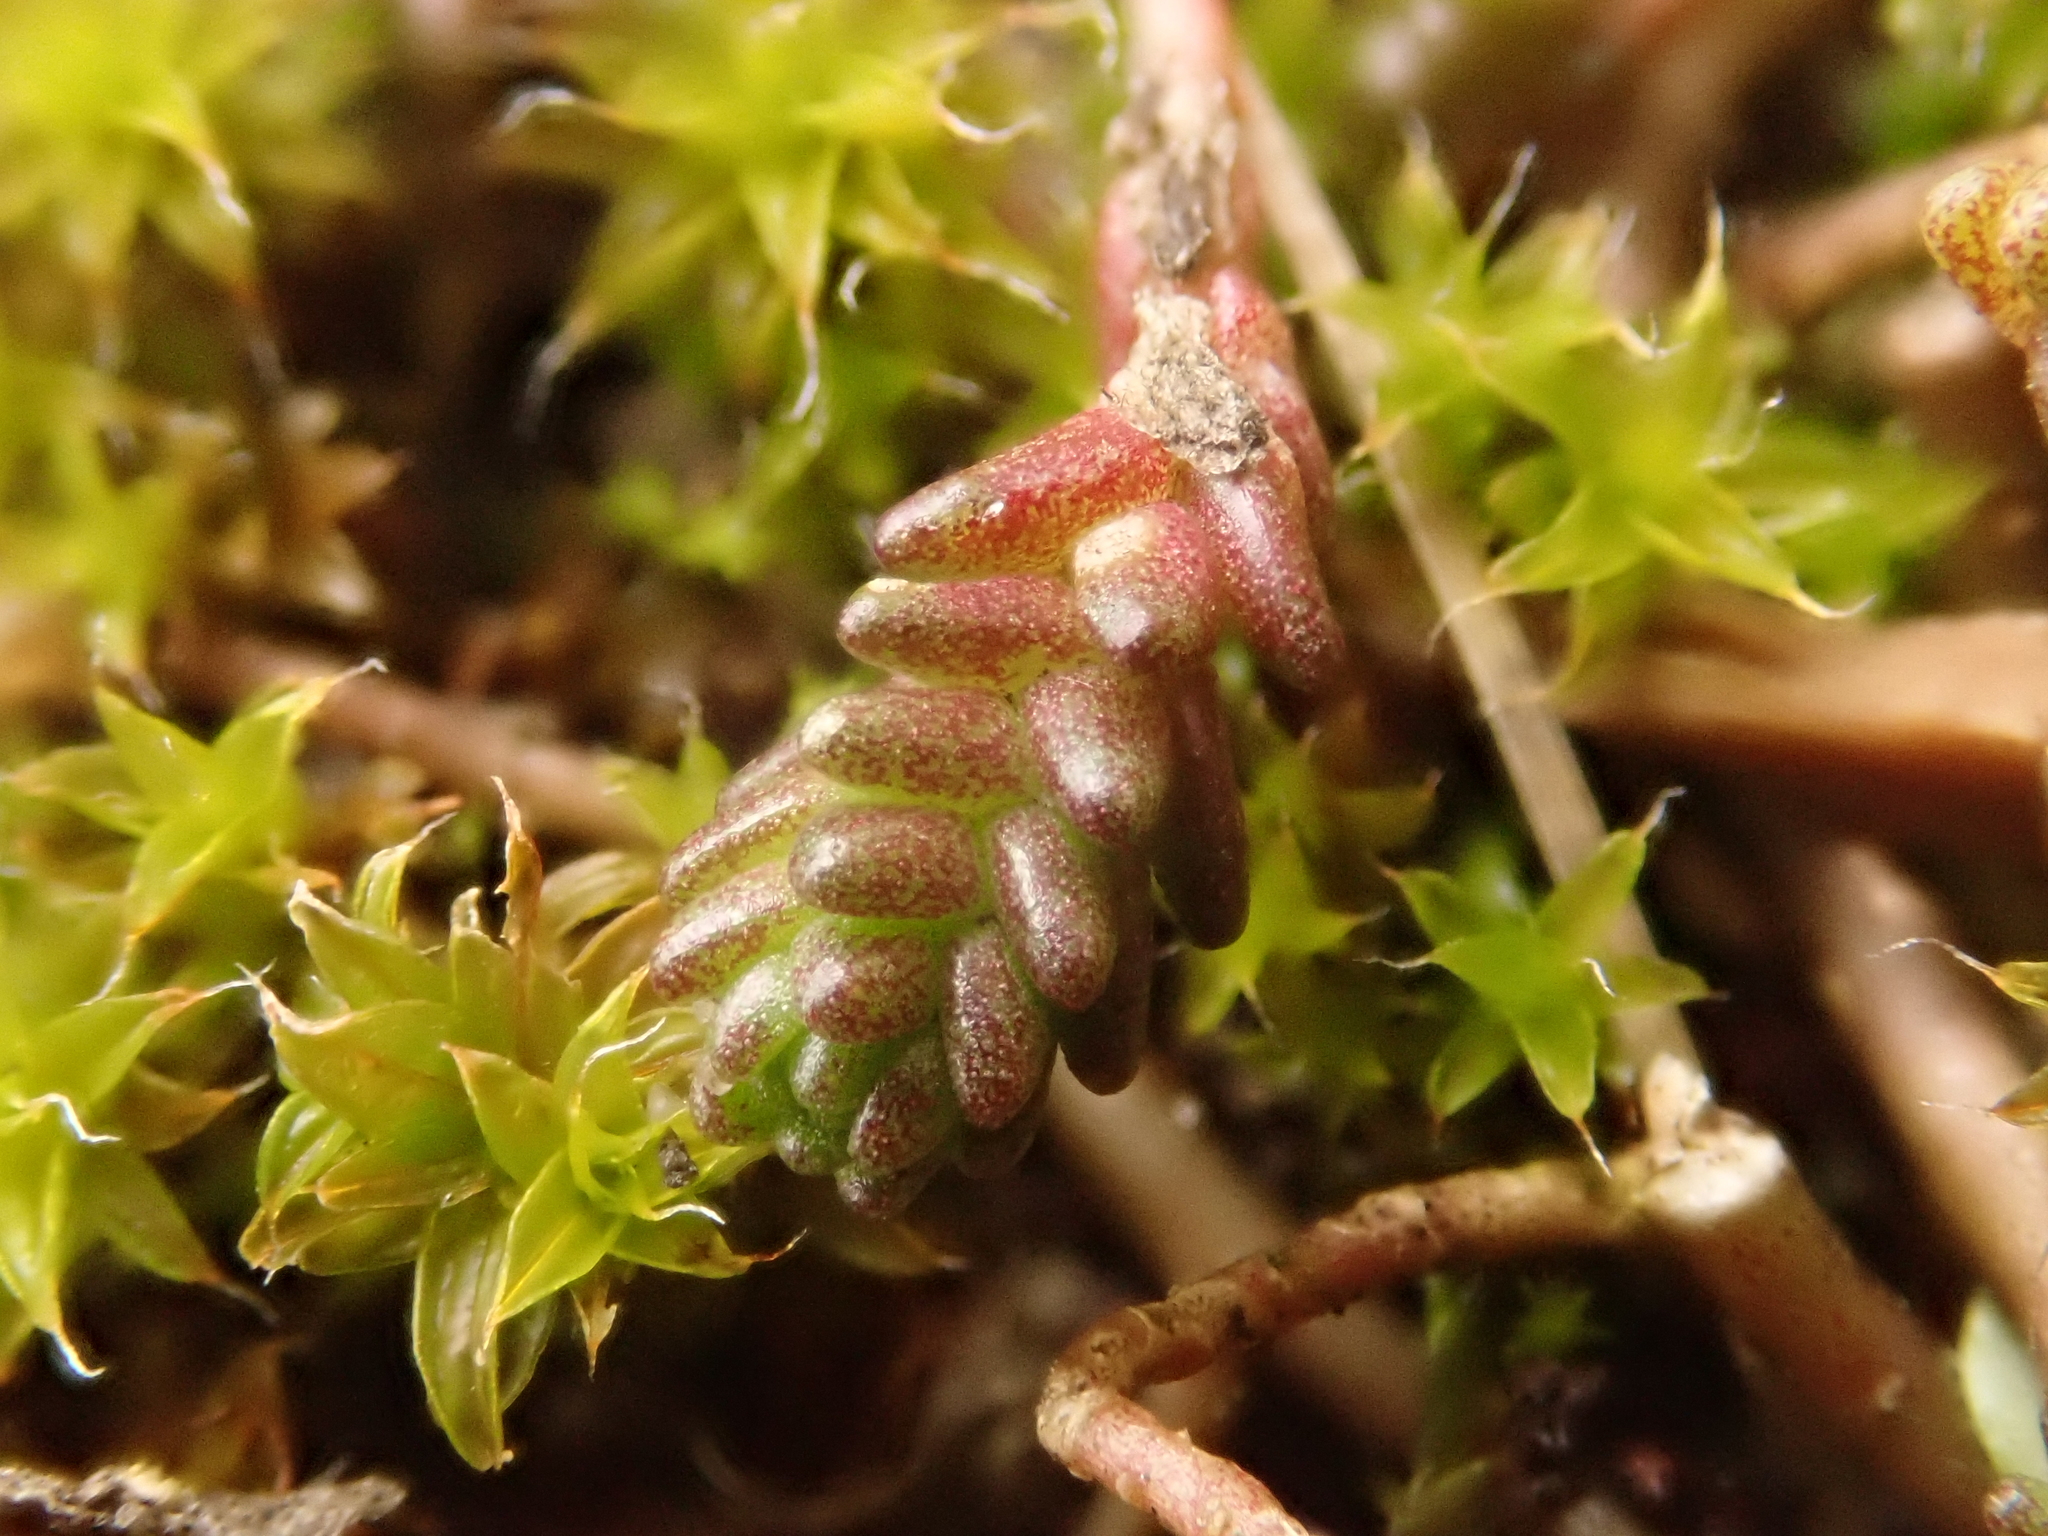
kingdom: Plantae
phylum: Tracheophyta
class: Magnoliopsida
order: Saxifragales
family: Crassulaceae
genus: Sedum
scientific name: Sedum acre
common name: Biting stonecrop
